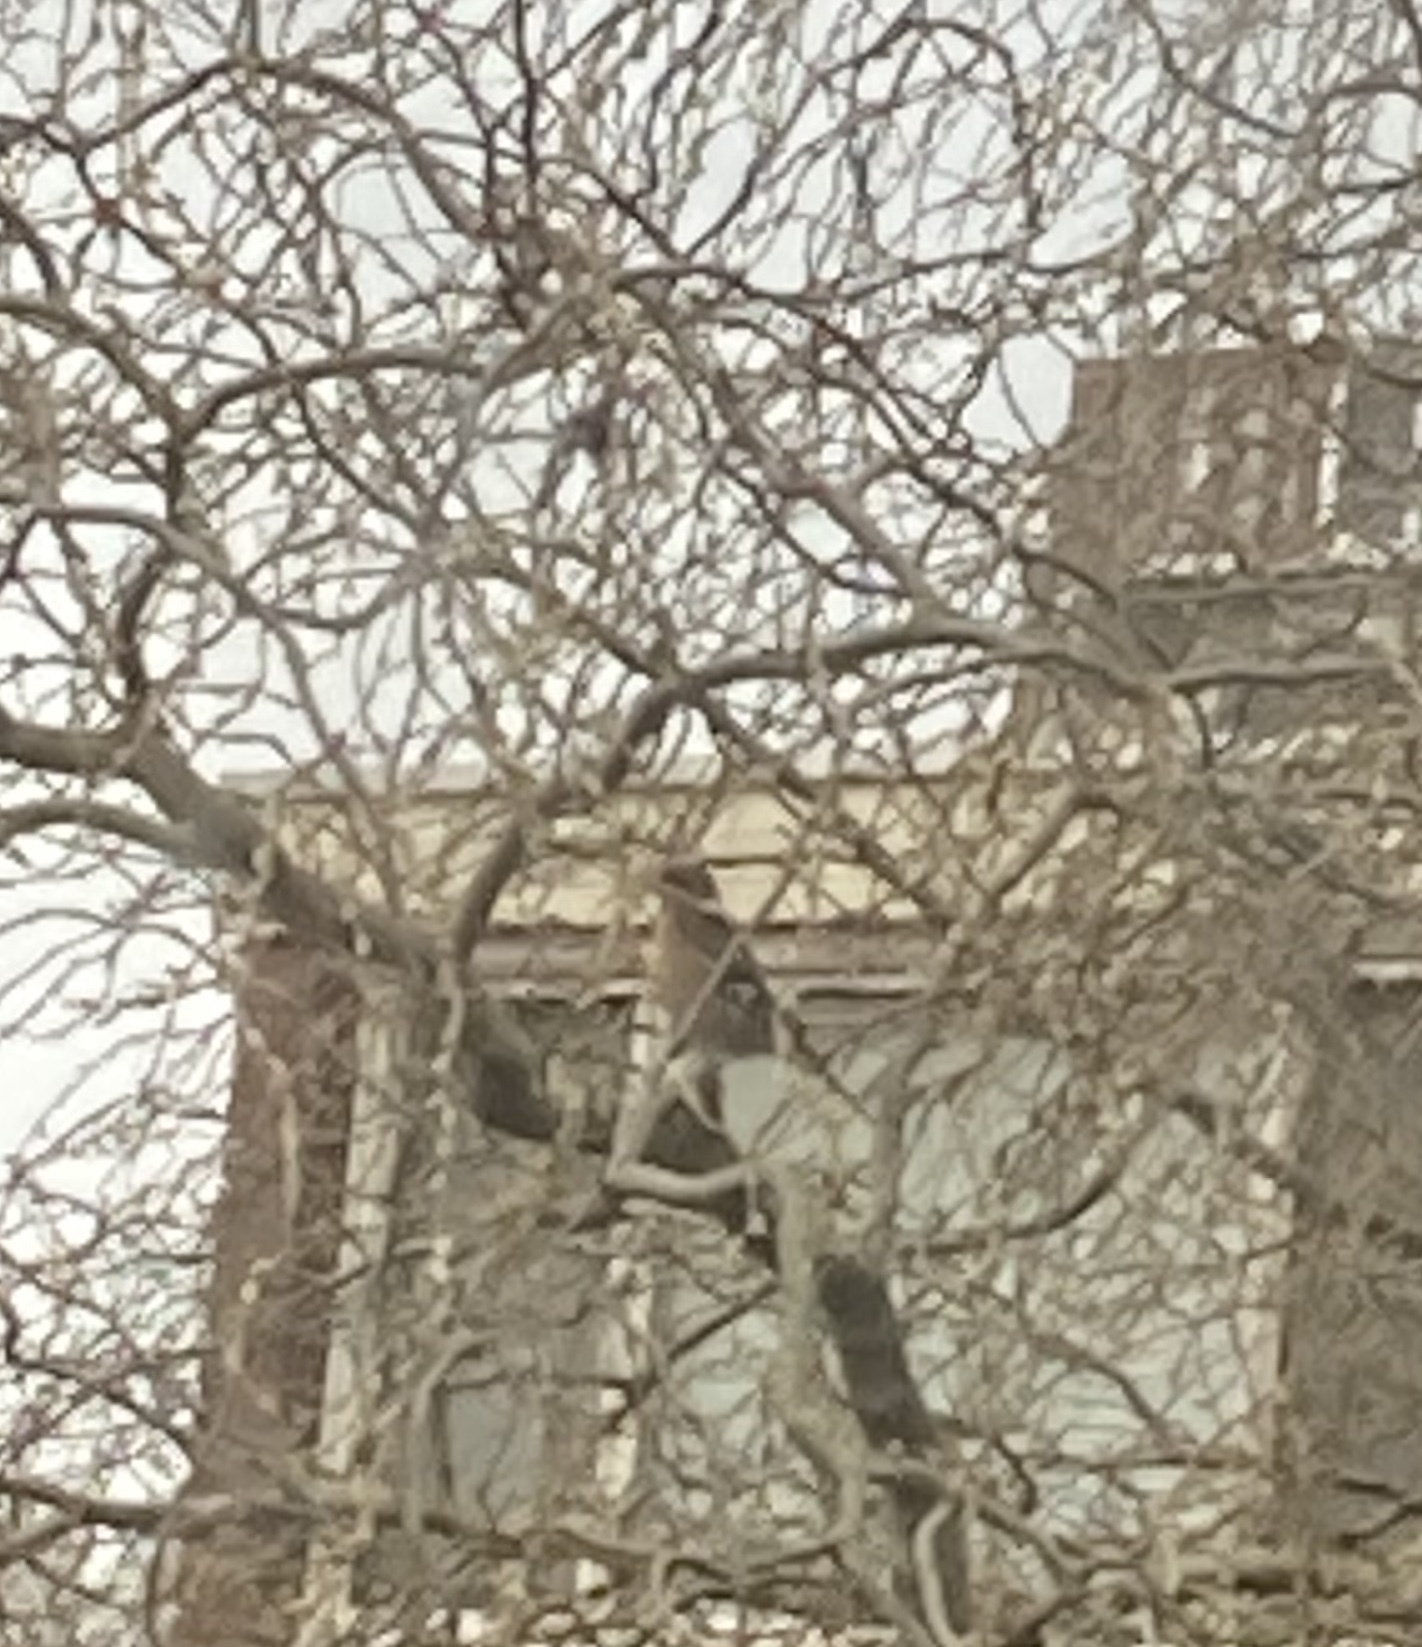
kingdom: Animalia
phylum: Chordata
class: Aves
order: Passeriformes
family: Fringillidae
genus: Fringilla
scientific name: Fringilla coelebs
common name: Common chaffinch
